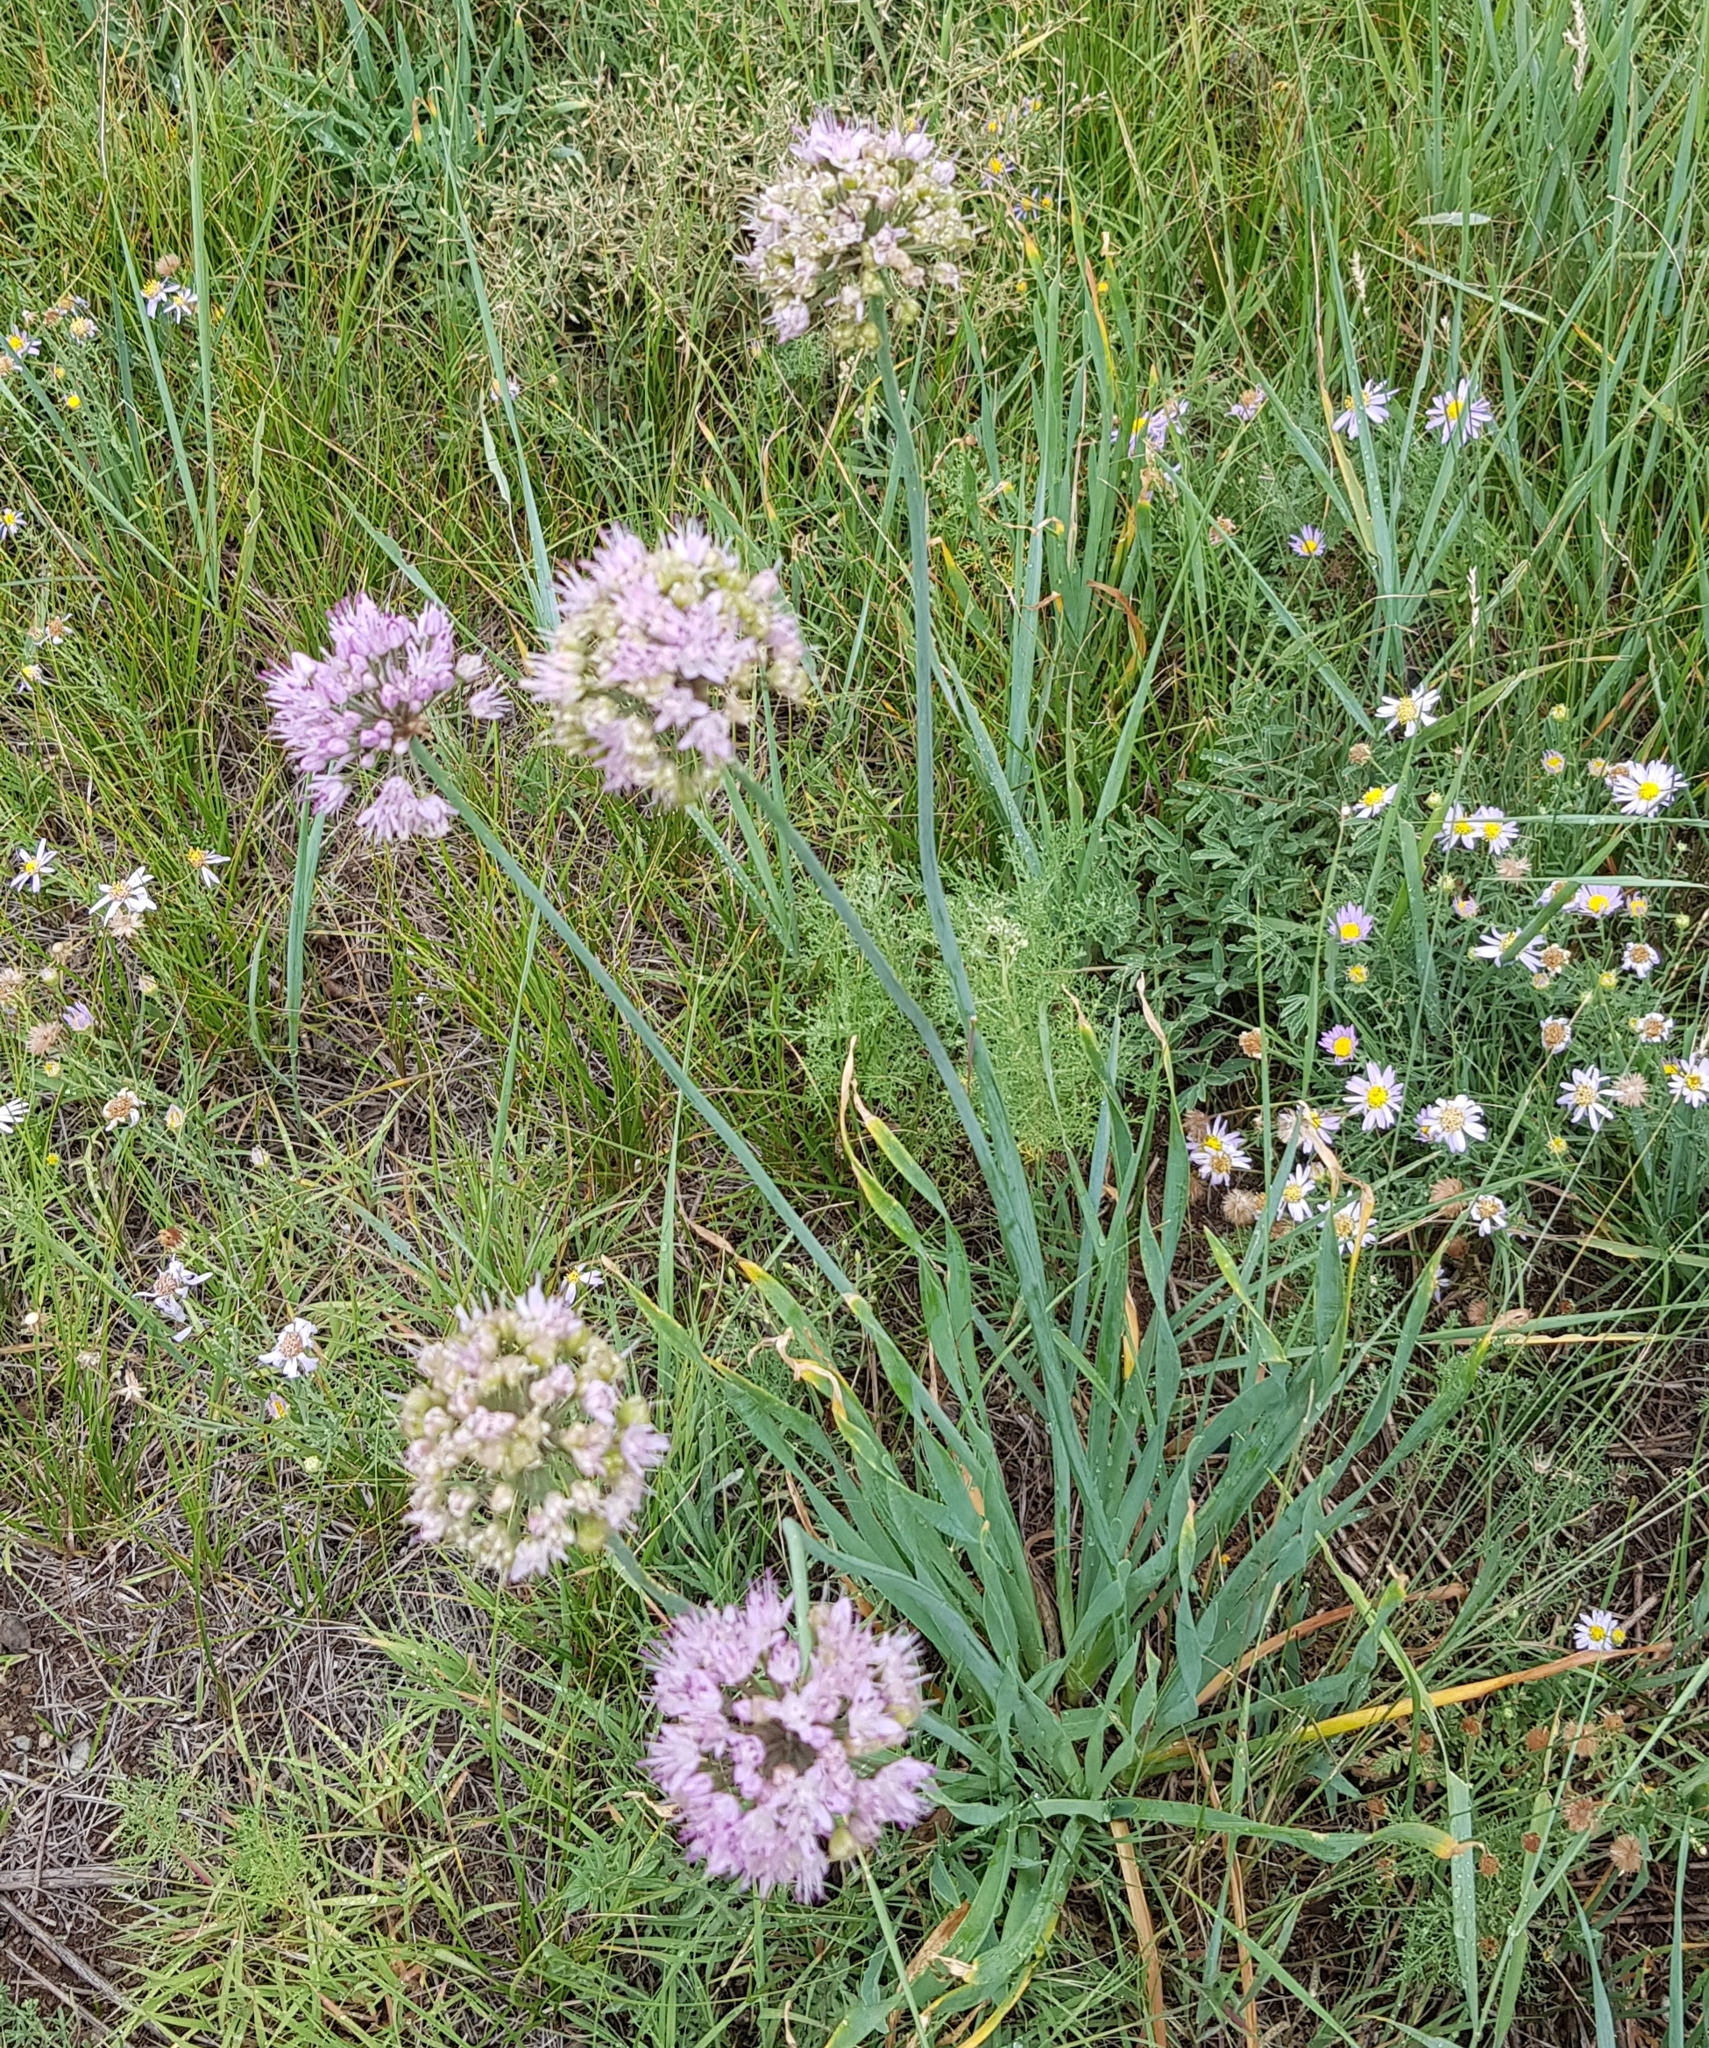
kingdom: Plantae
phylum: Tracheophyta
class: Liliopsida
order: Asparagales
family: Amaryllidaceae
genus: Allium
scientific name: Allium senescens
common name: German garlic
